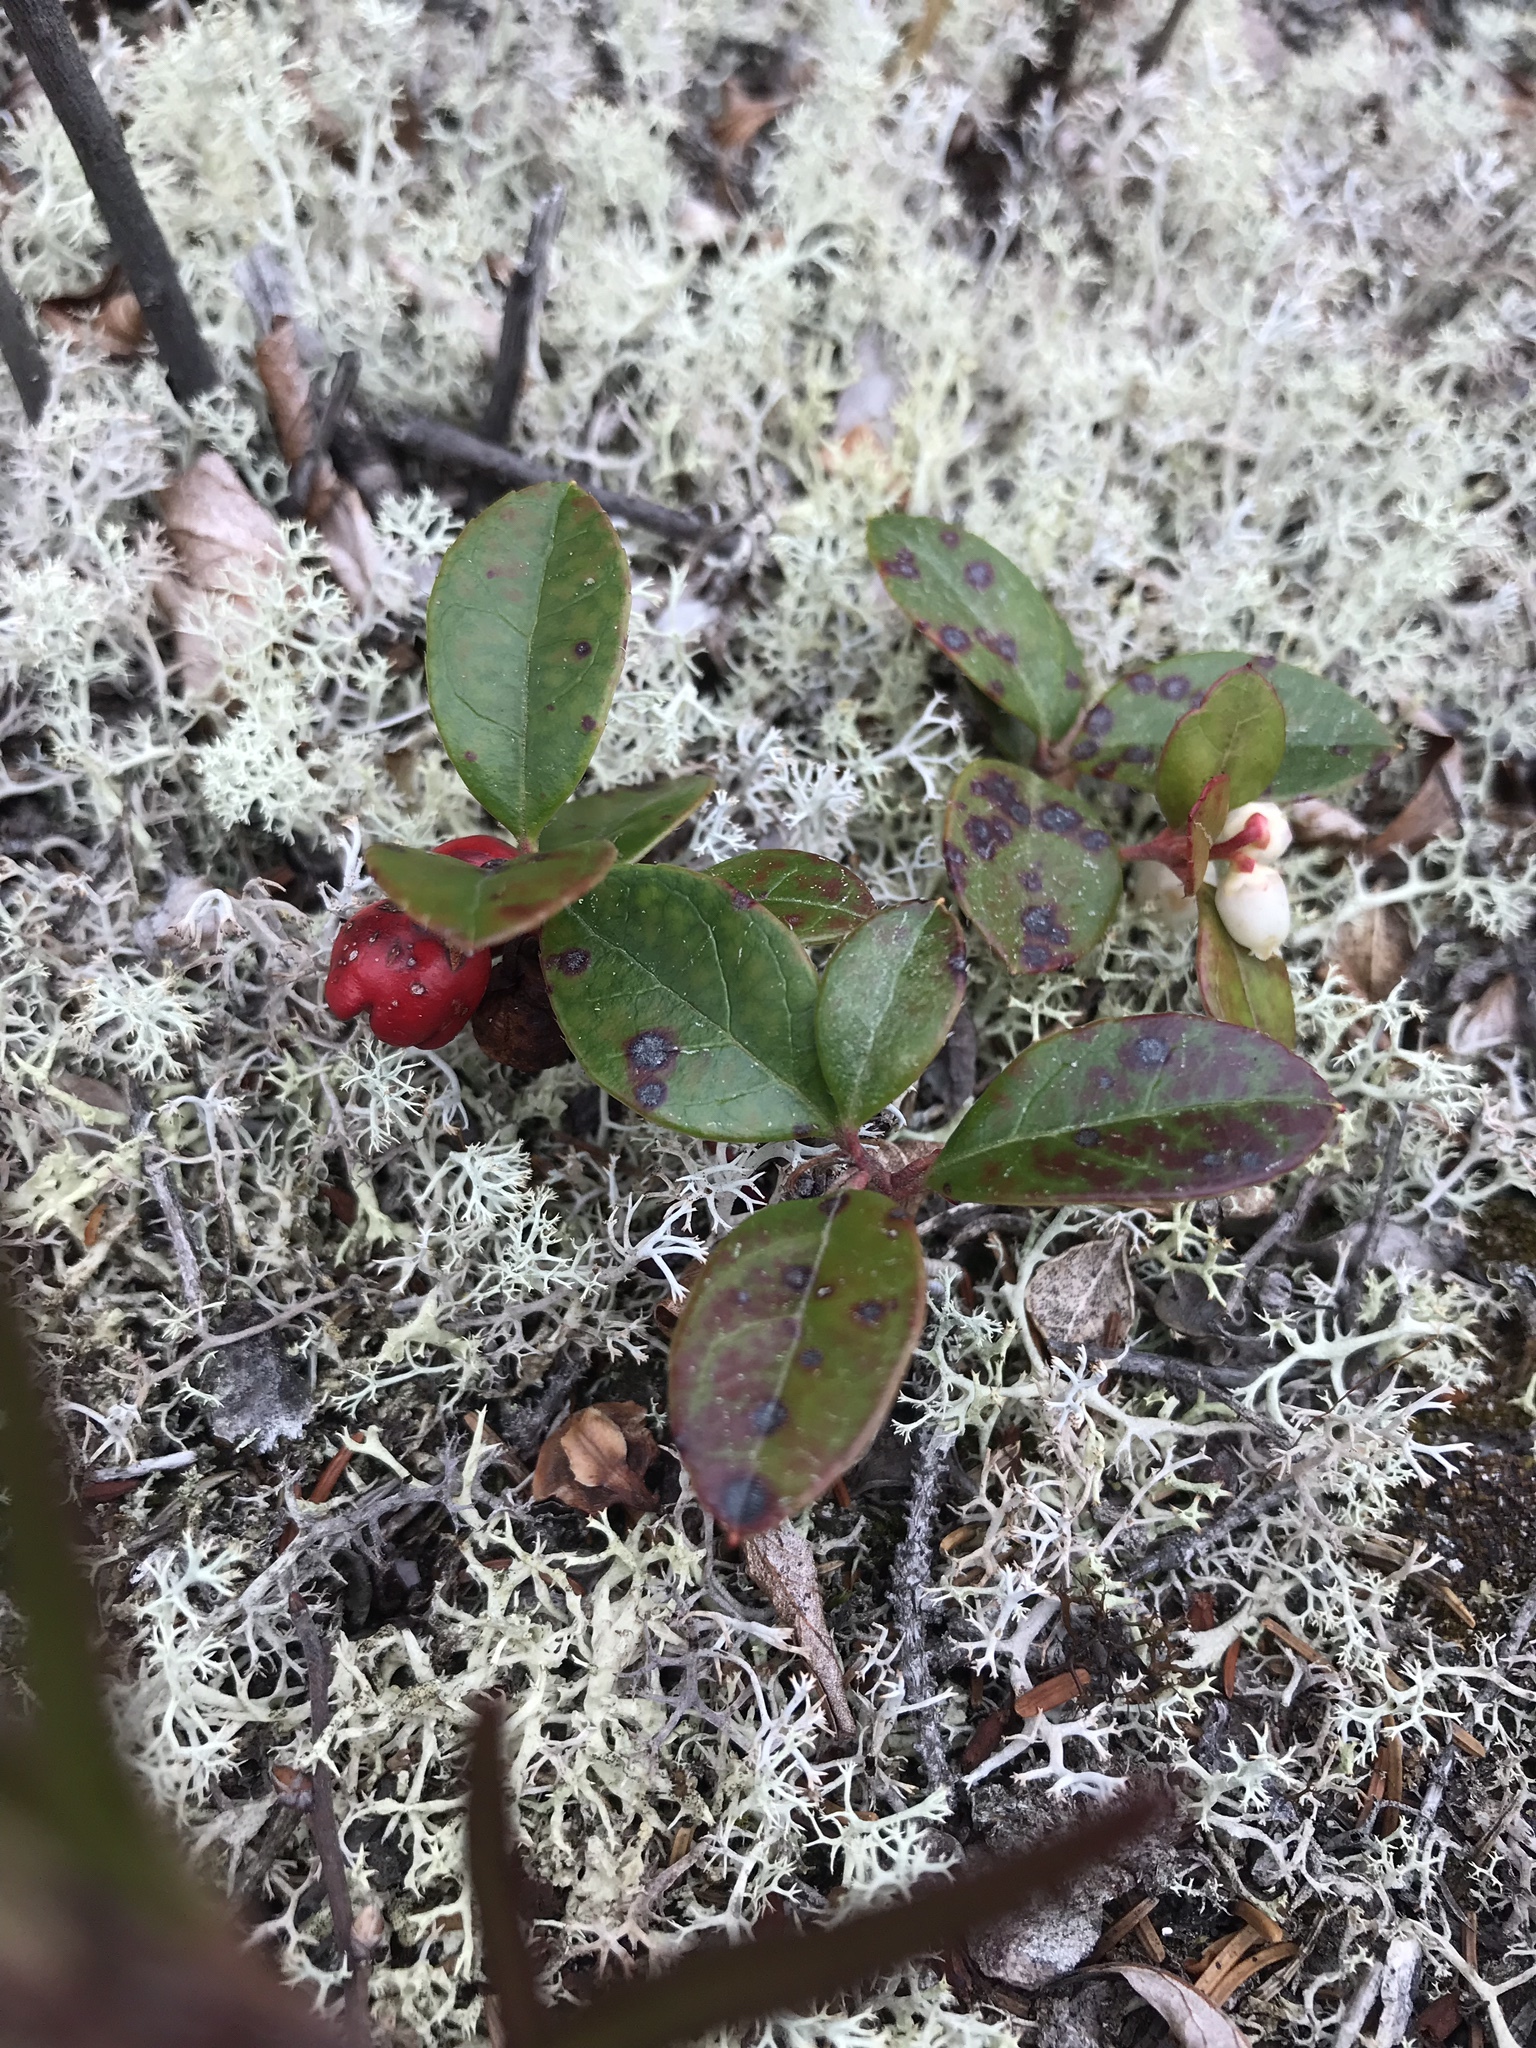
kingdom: Plantae
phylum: Tracheophyta
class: Magnoliopsida
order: Ericales
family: Ericaceae
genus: Gaultheria
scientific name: Gaultheria procumbens
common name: Checkerberry
